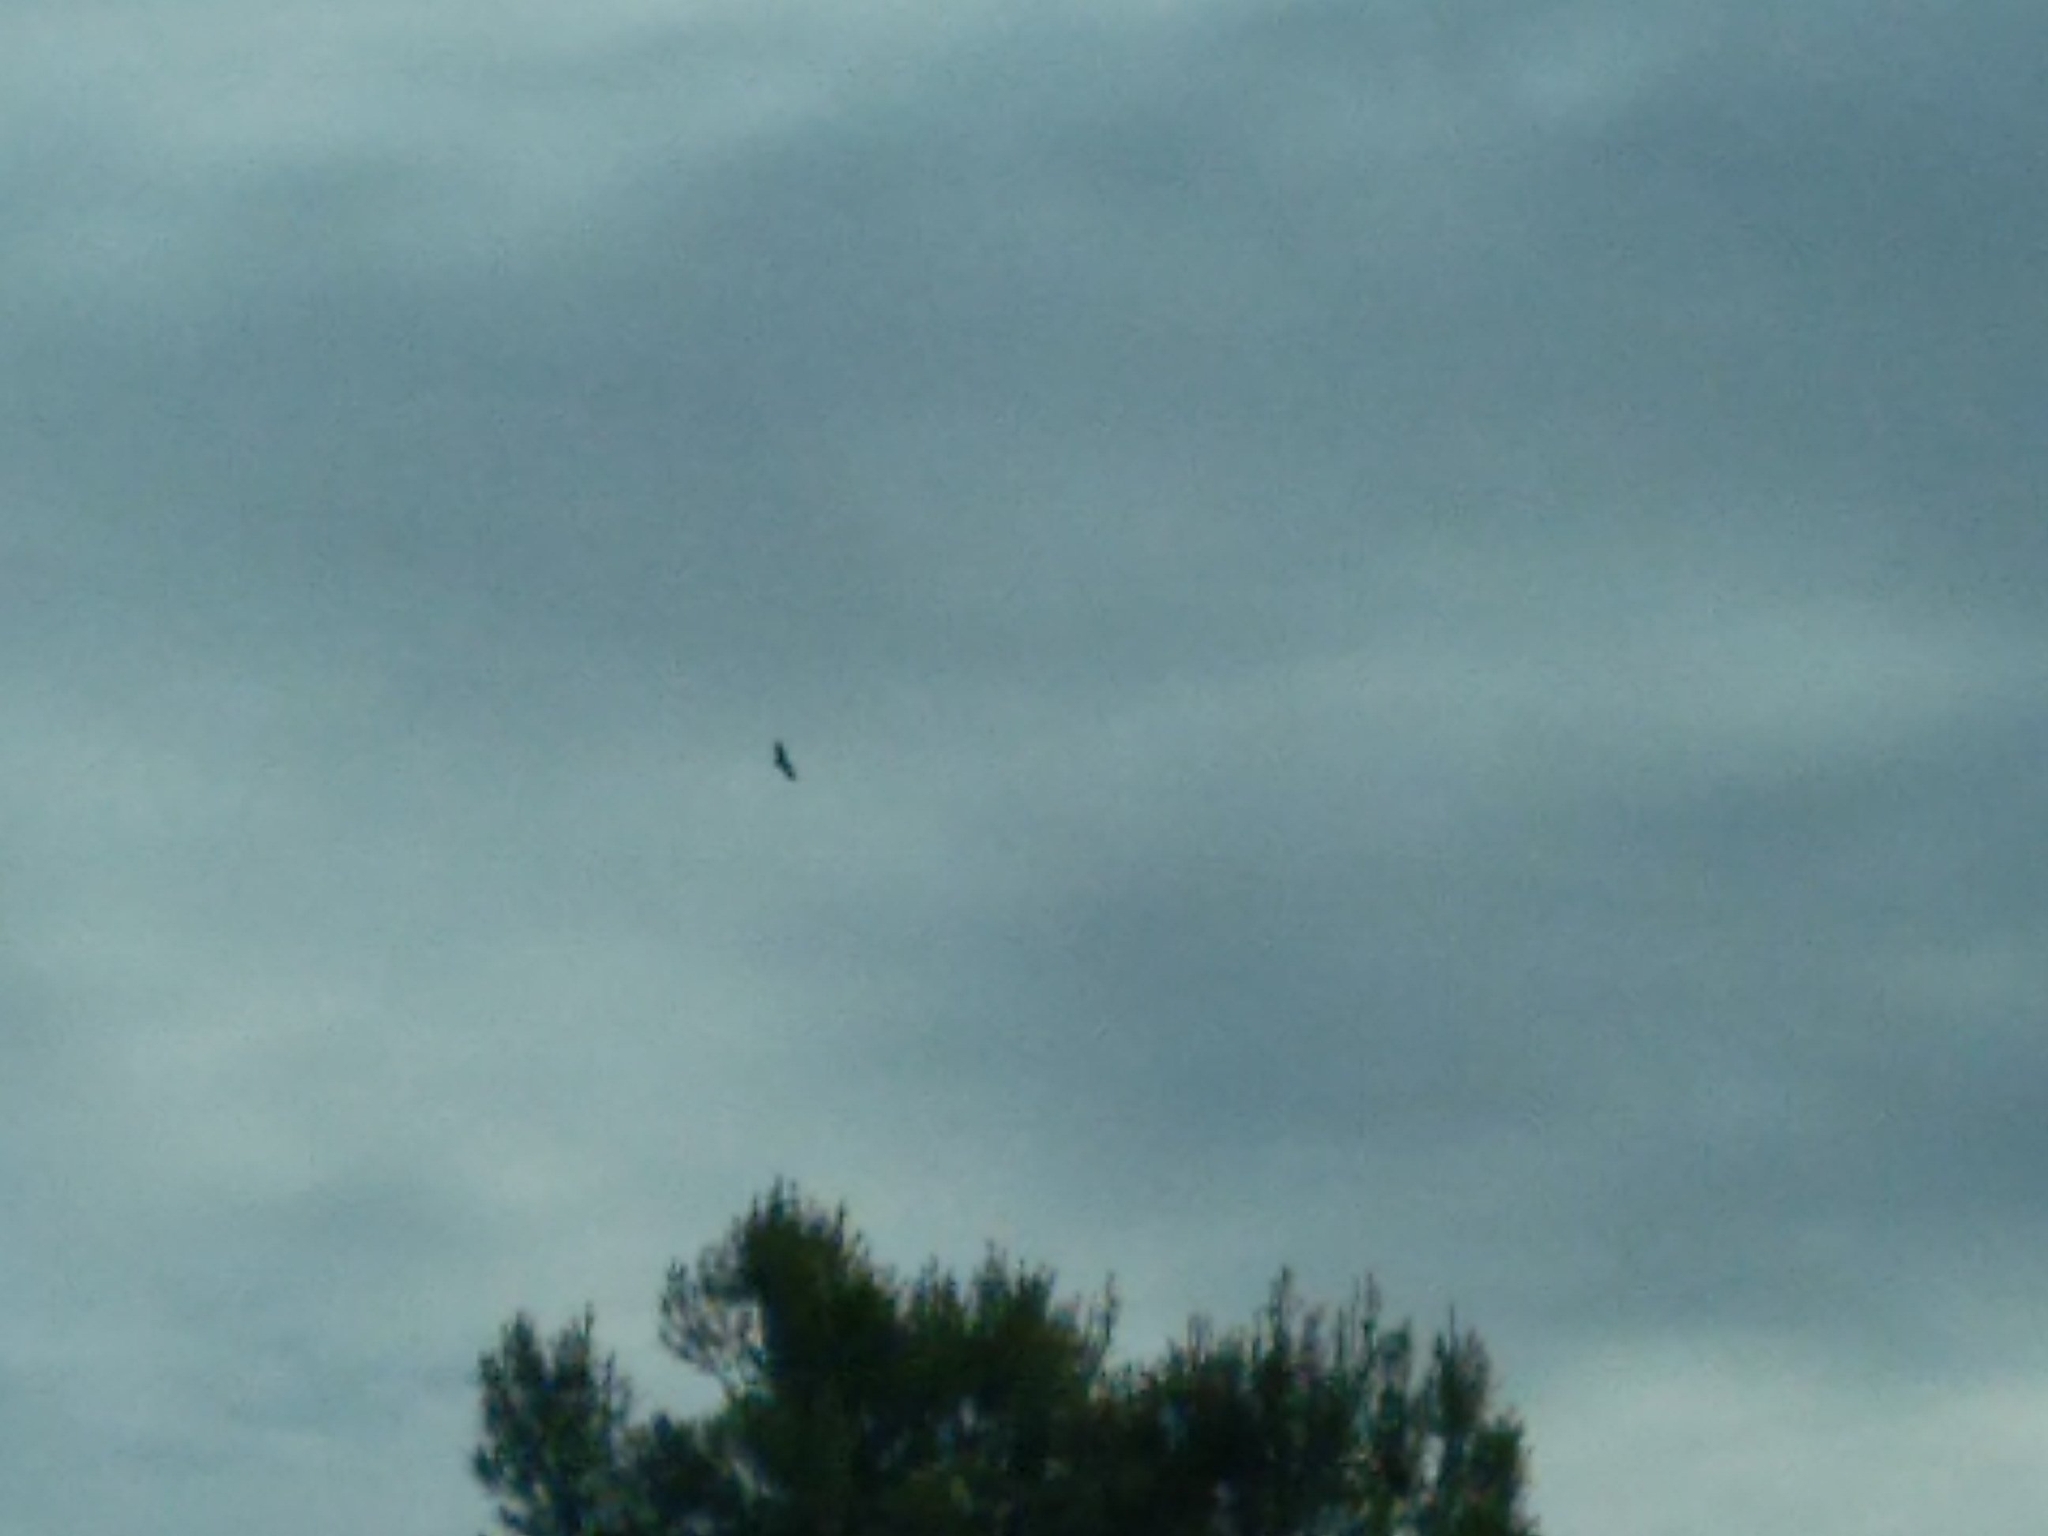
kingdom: Animalia
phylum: Chordata
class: Aves
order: Accipitriformes
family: Accipitridae
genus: Gyps
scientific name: Gyps fulvus
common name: Griffon vulture
